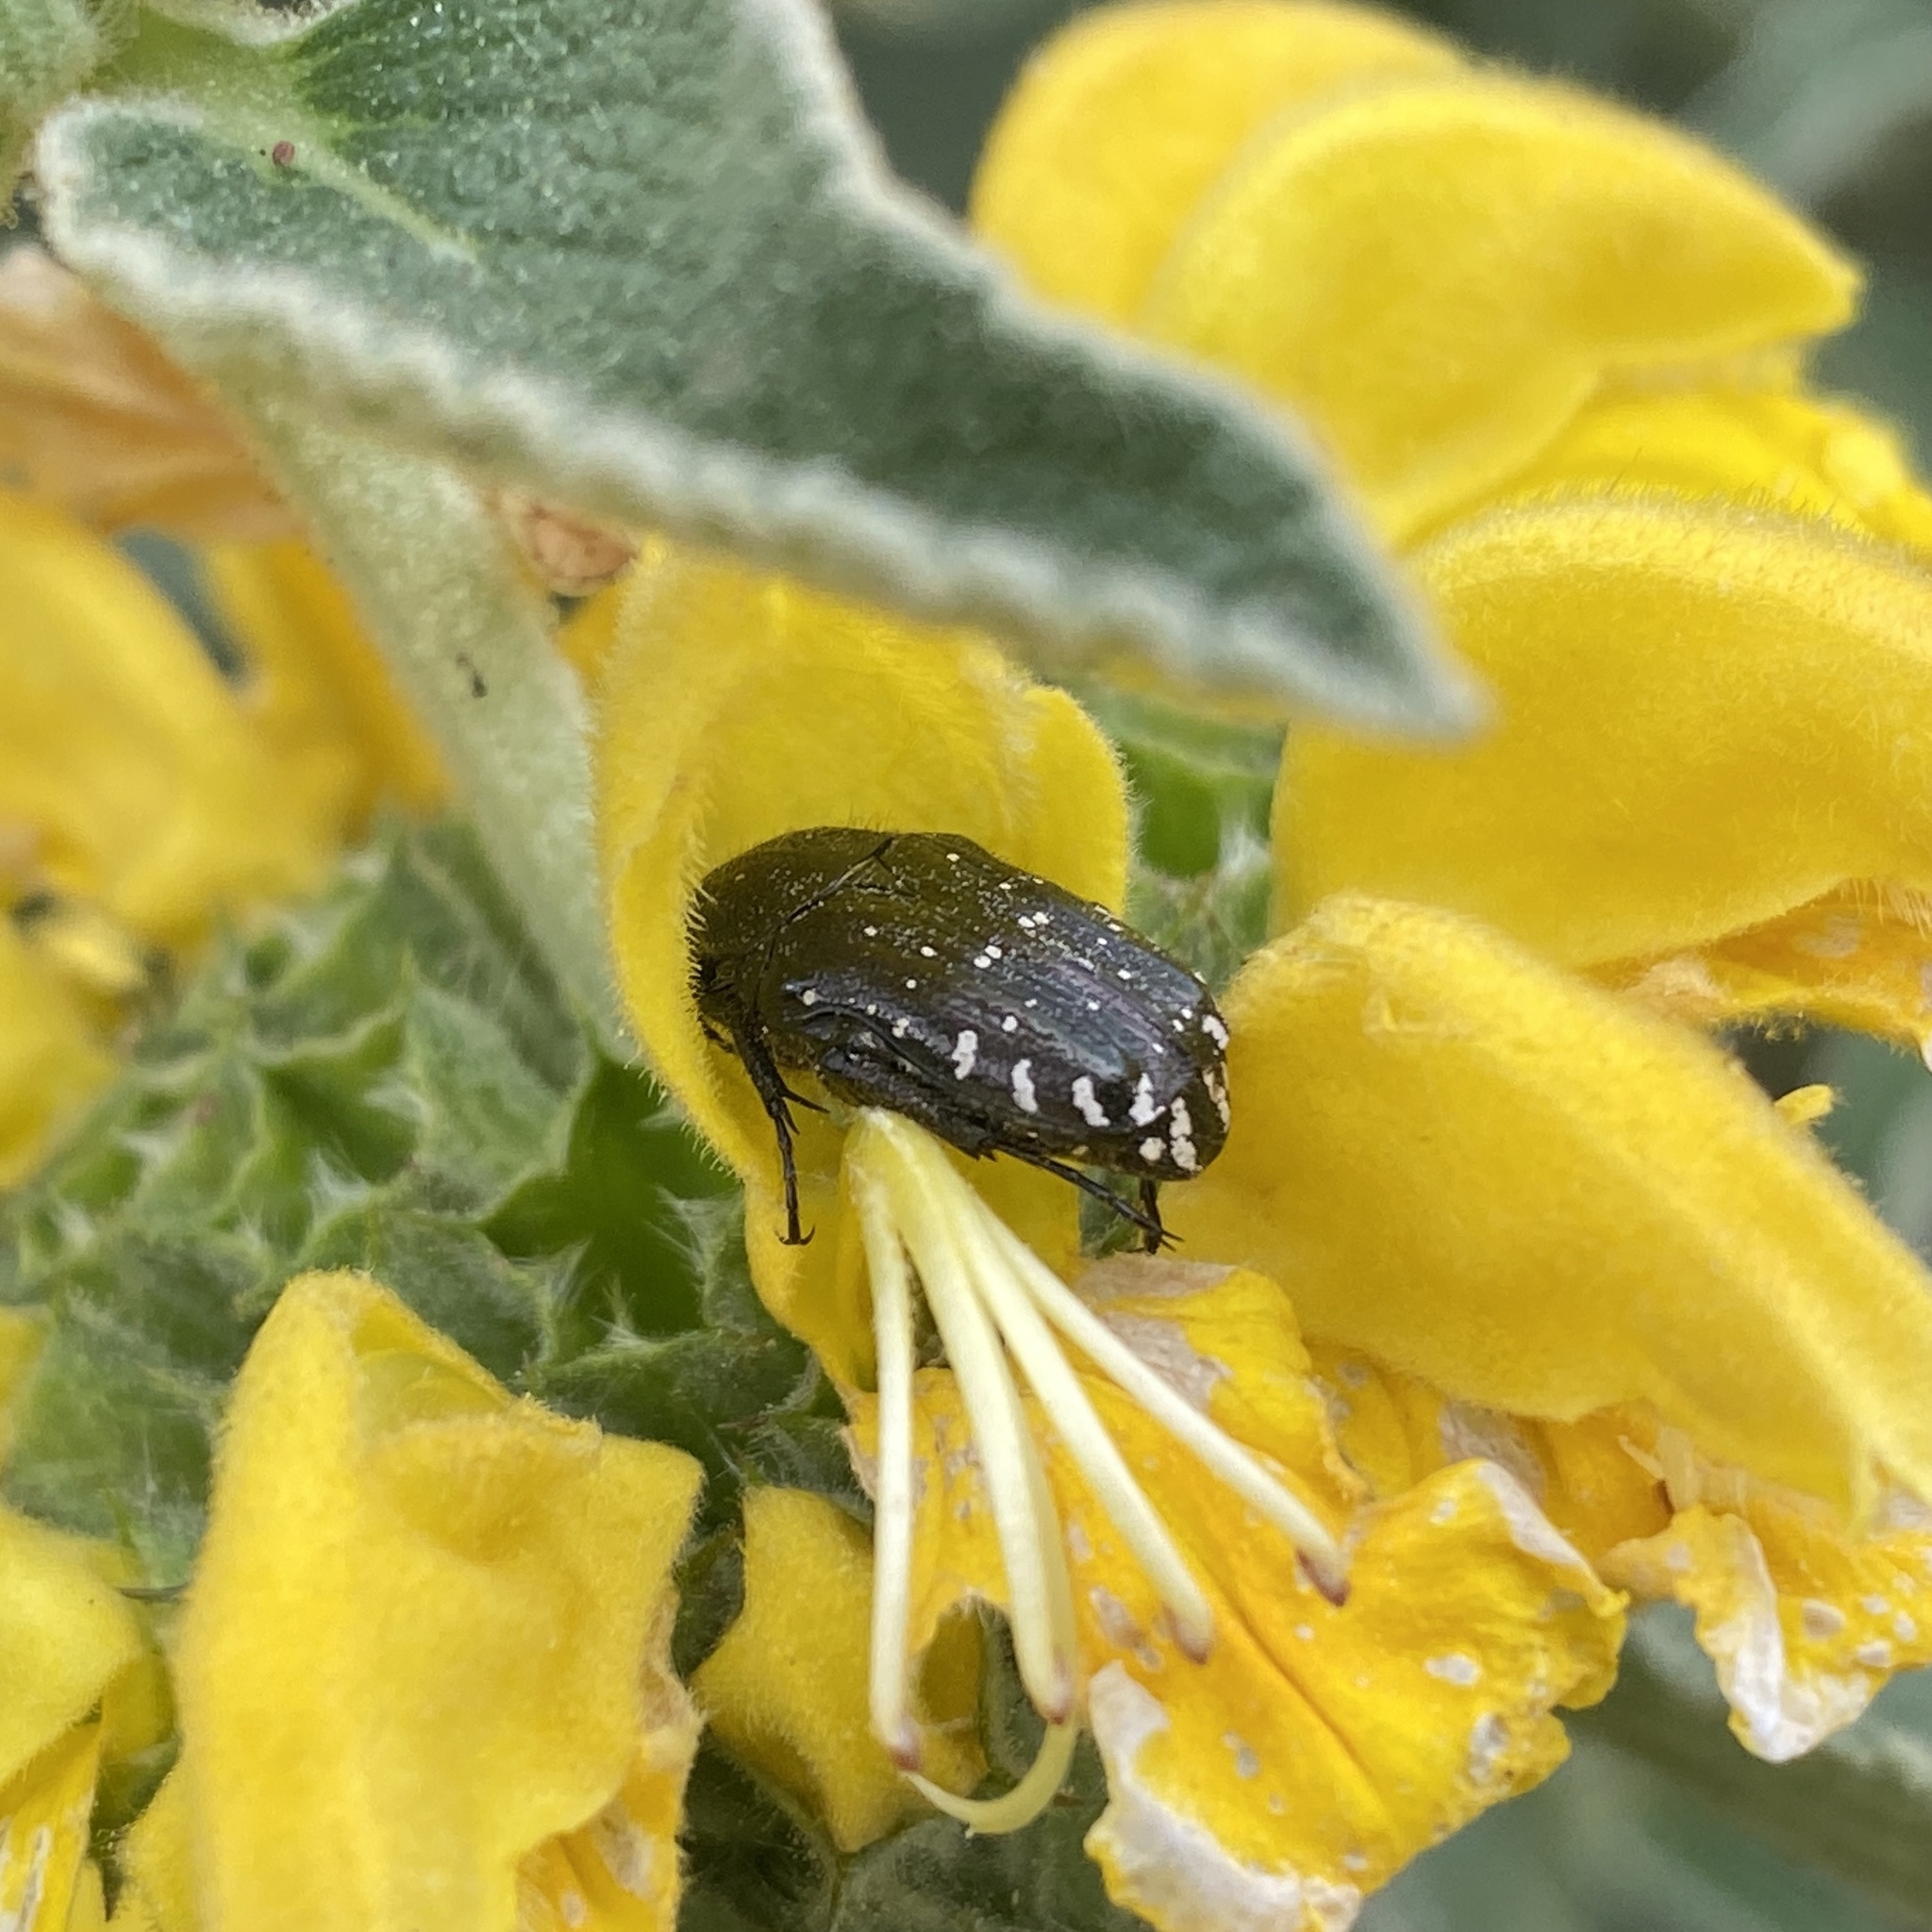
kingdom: Animalia
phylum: Arthropoda
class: Insecta
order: Coleoptera
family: Scarabaeidae
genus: Oxythyrea
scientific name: Oxythyrea funesta
